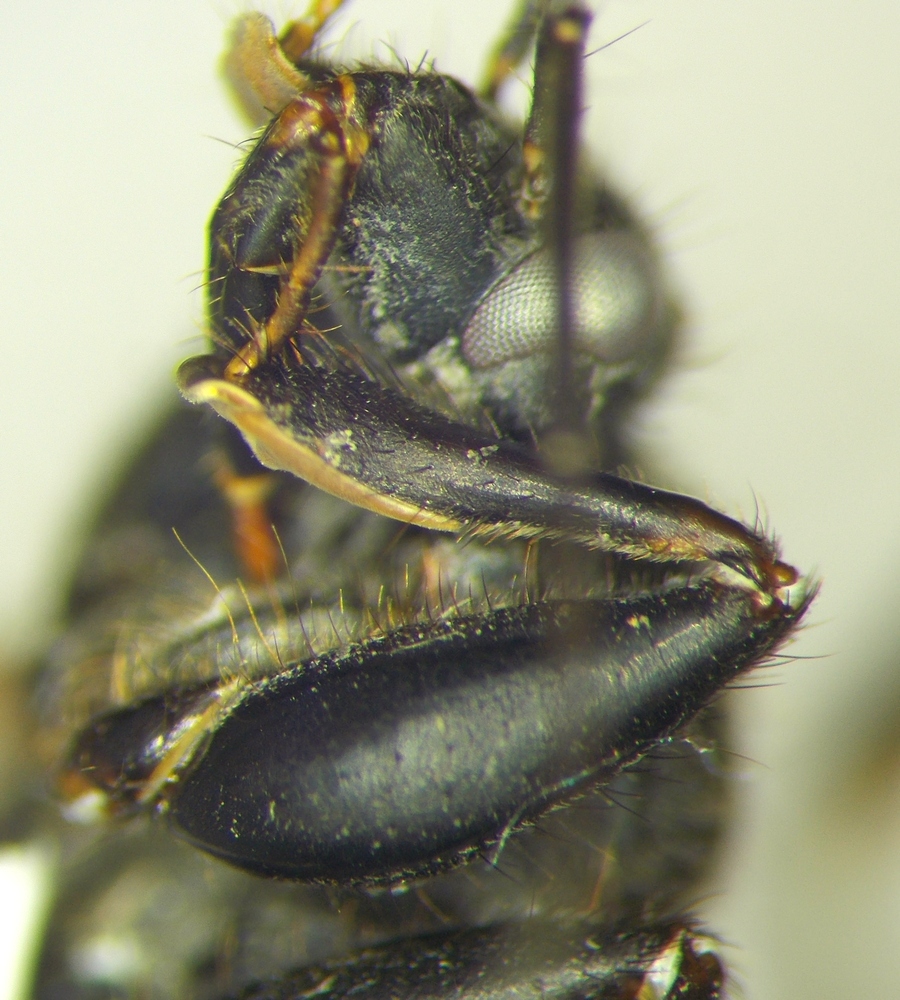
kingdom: Animalia
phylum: Arthropoda
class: Insecta
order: Hemiptera
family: Reduviidae
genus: Peirates
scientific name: Peirates hybridus
